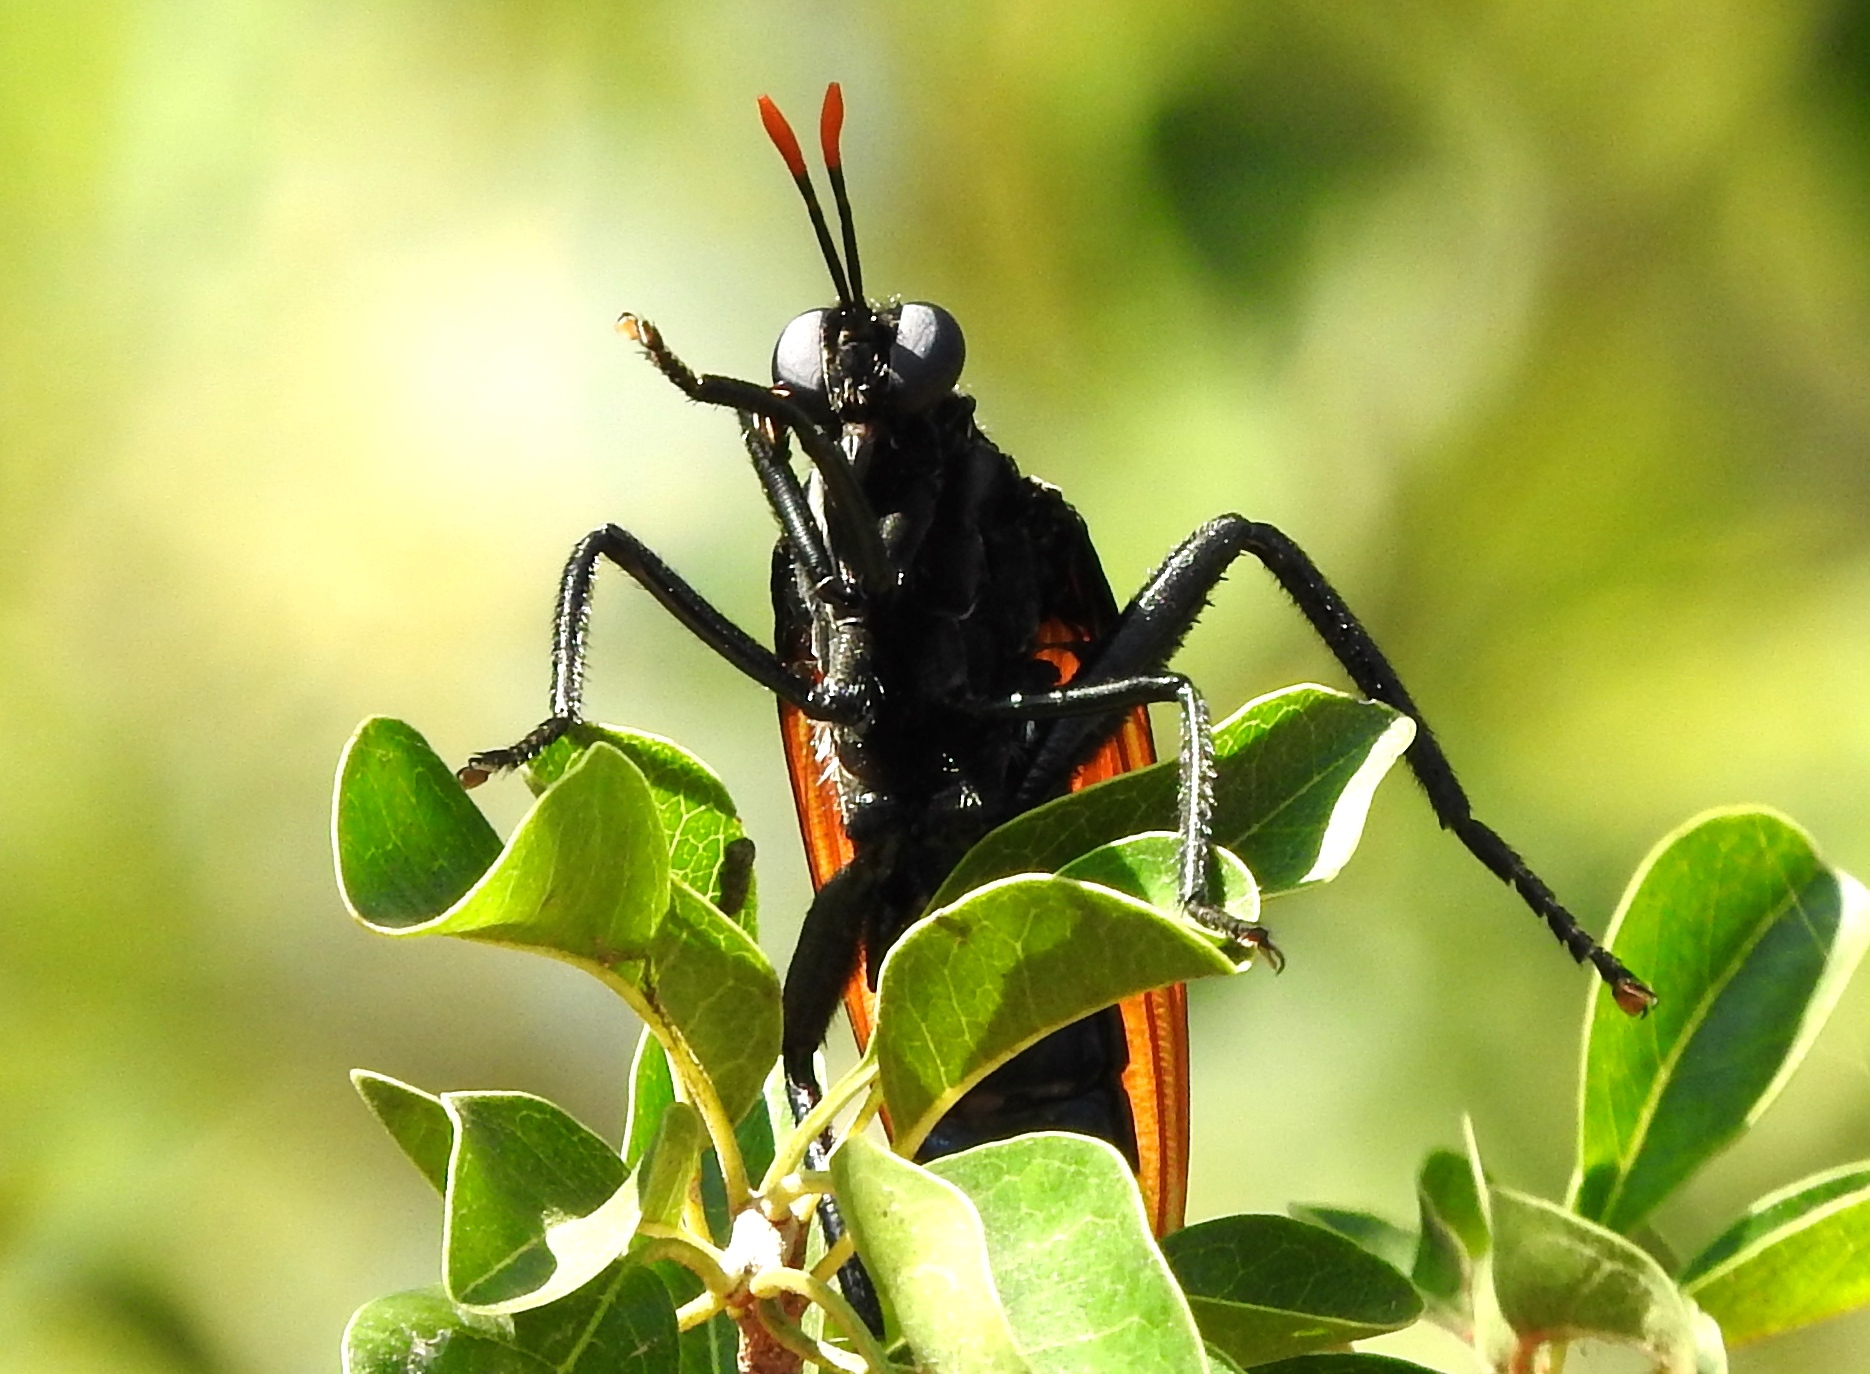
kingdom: Animalia
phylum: Arthropoda
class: Insecta
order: Diptera
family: Mydidae
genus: Mydas
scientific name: Mydas rubidapex
